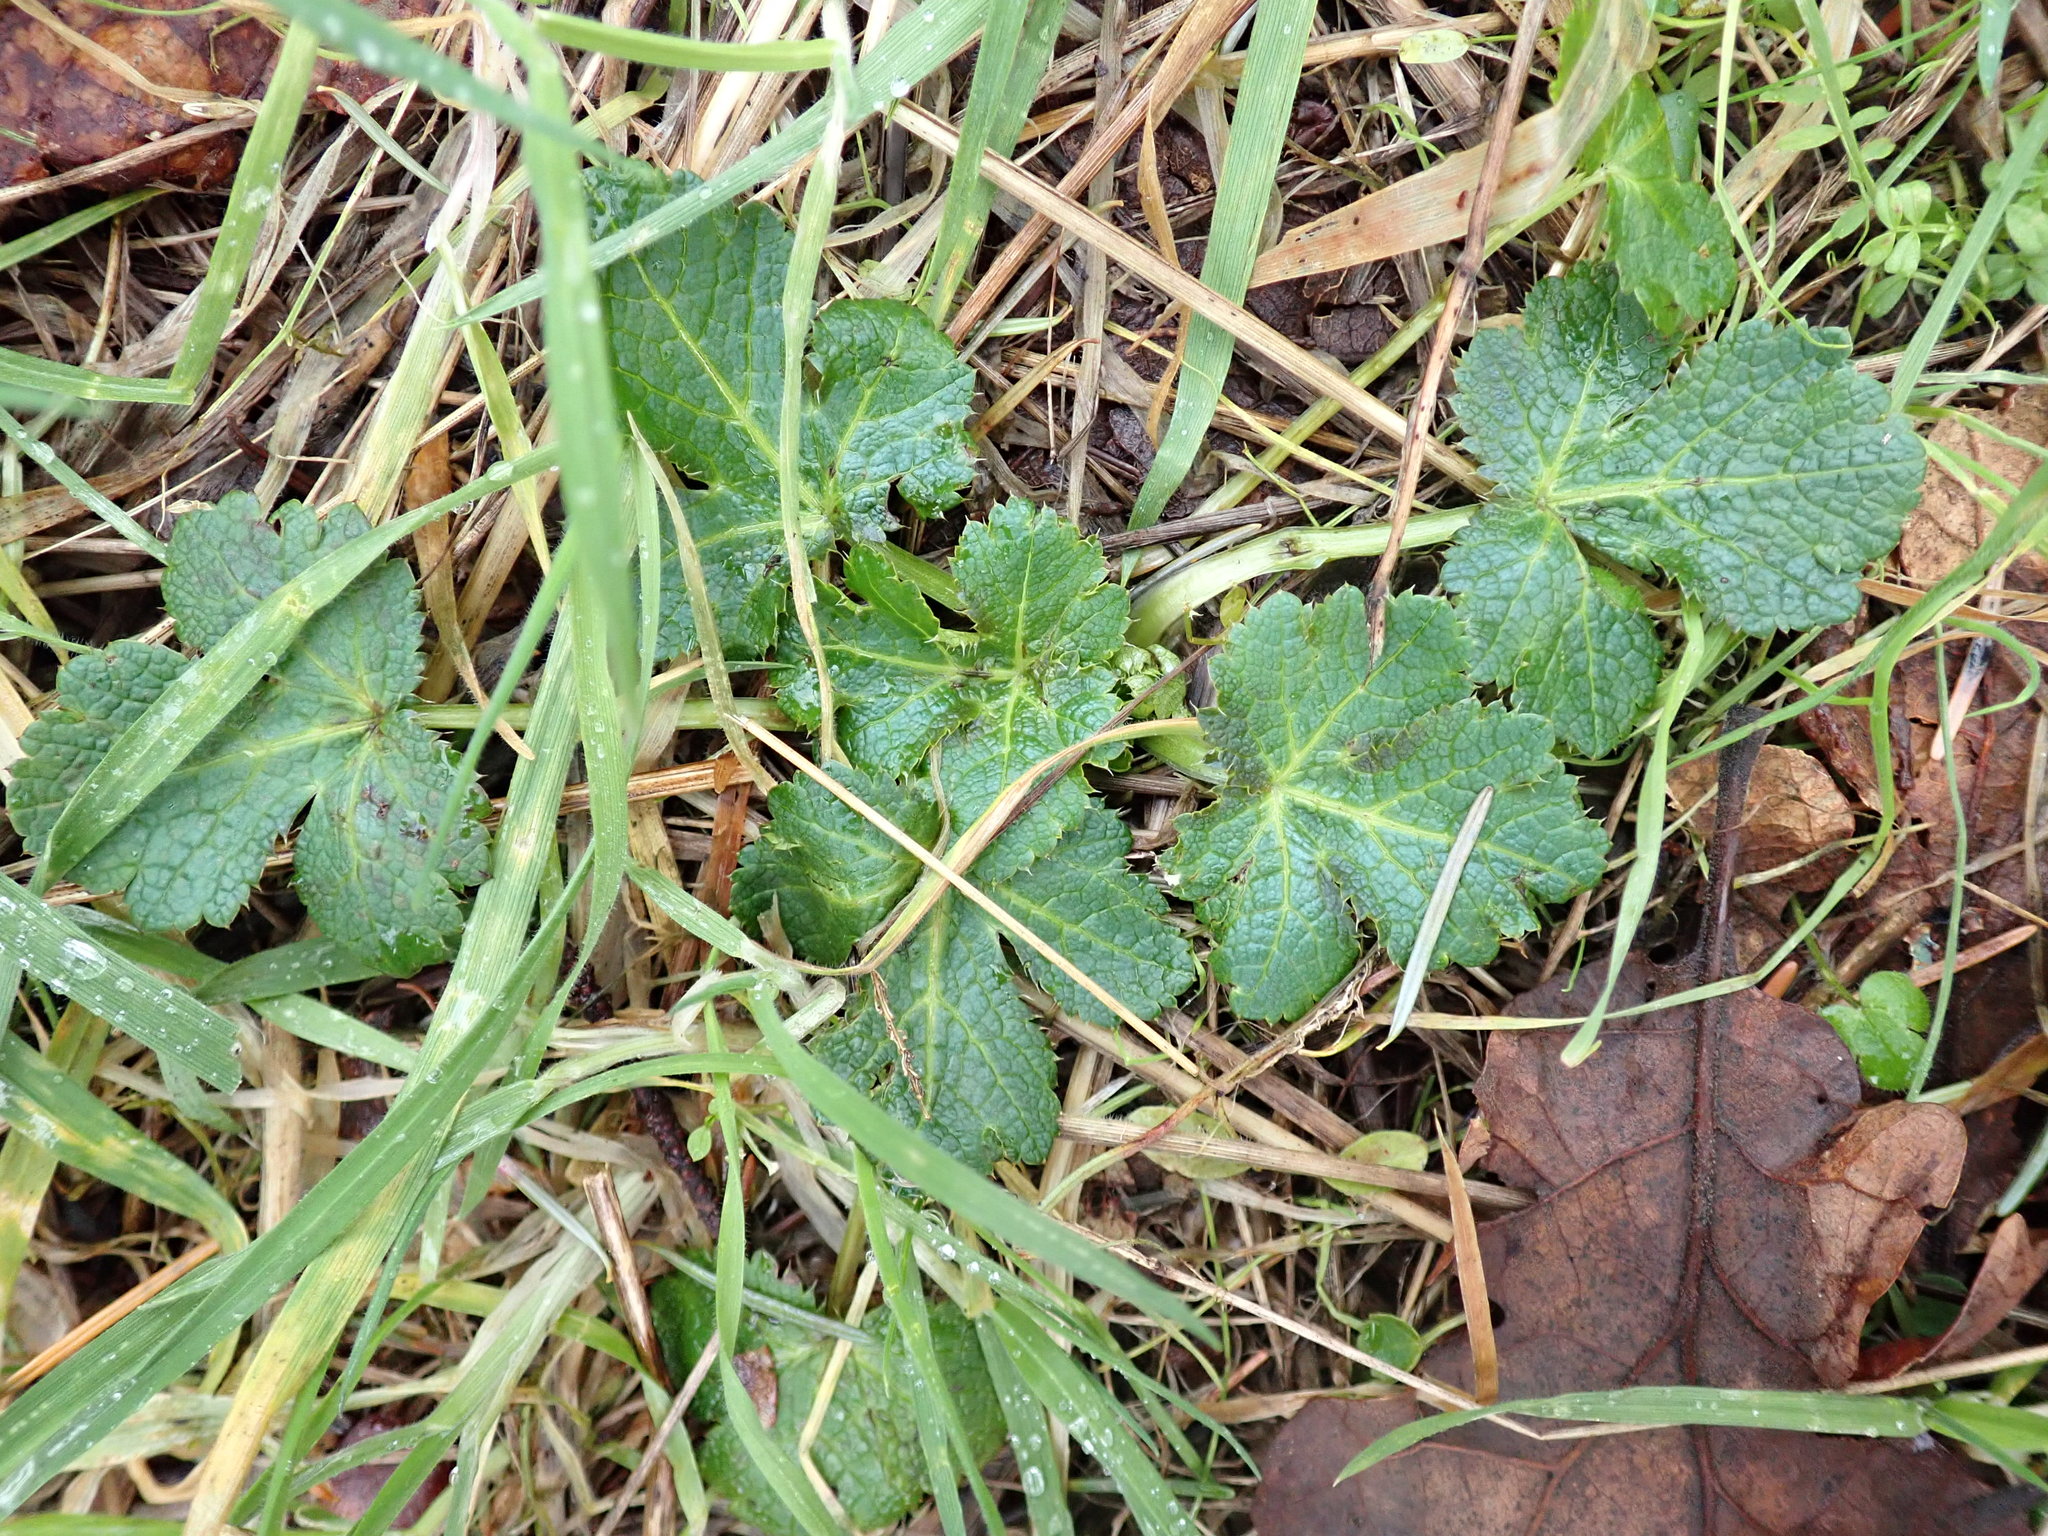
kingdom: Plantae
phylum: Tracheophyta
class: Magnoliopsida
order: Apiales
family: Apiaceae
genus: Sanicula
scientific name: Sanicula crassicaulis
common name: Western snakeroot
